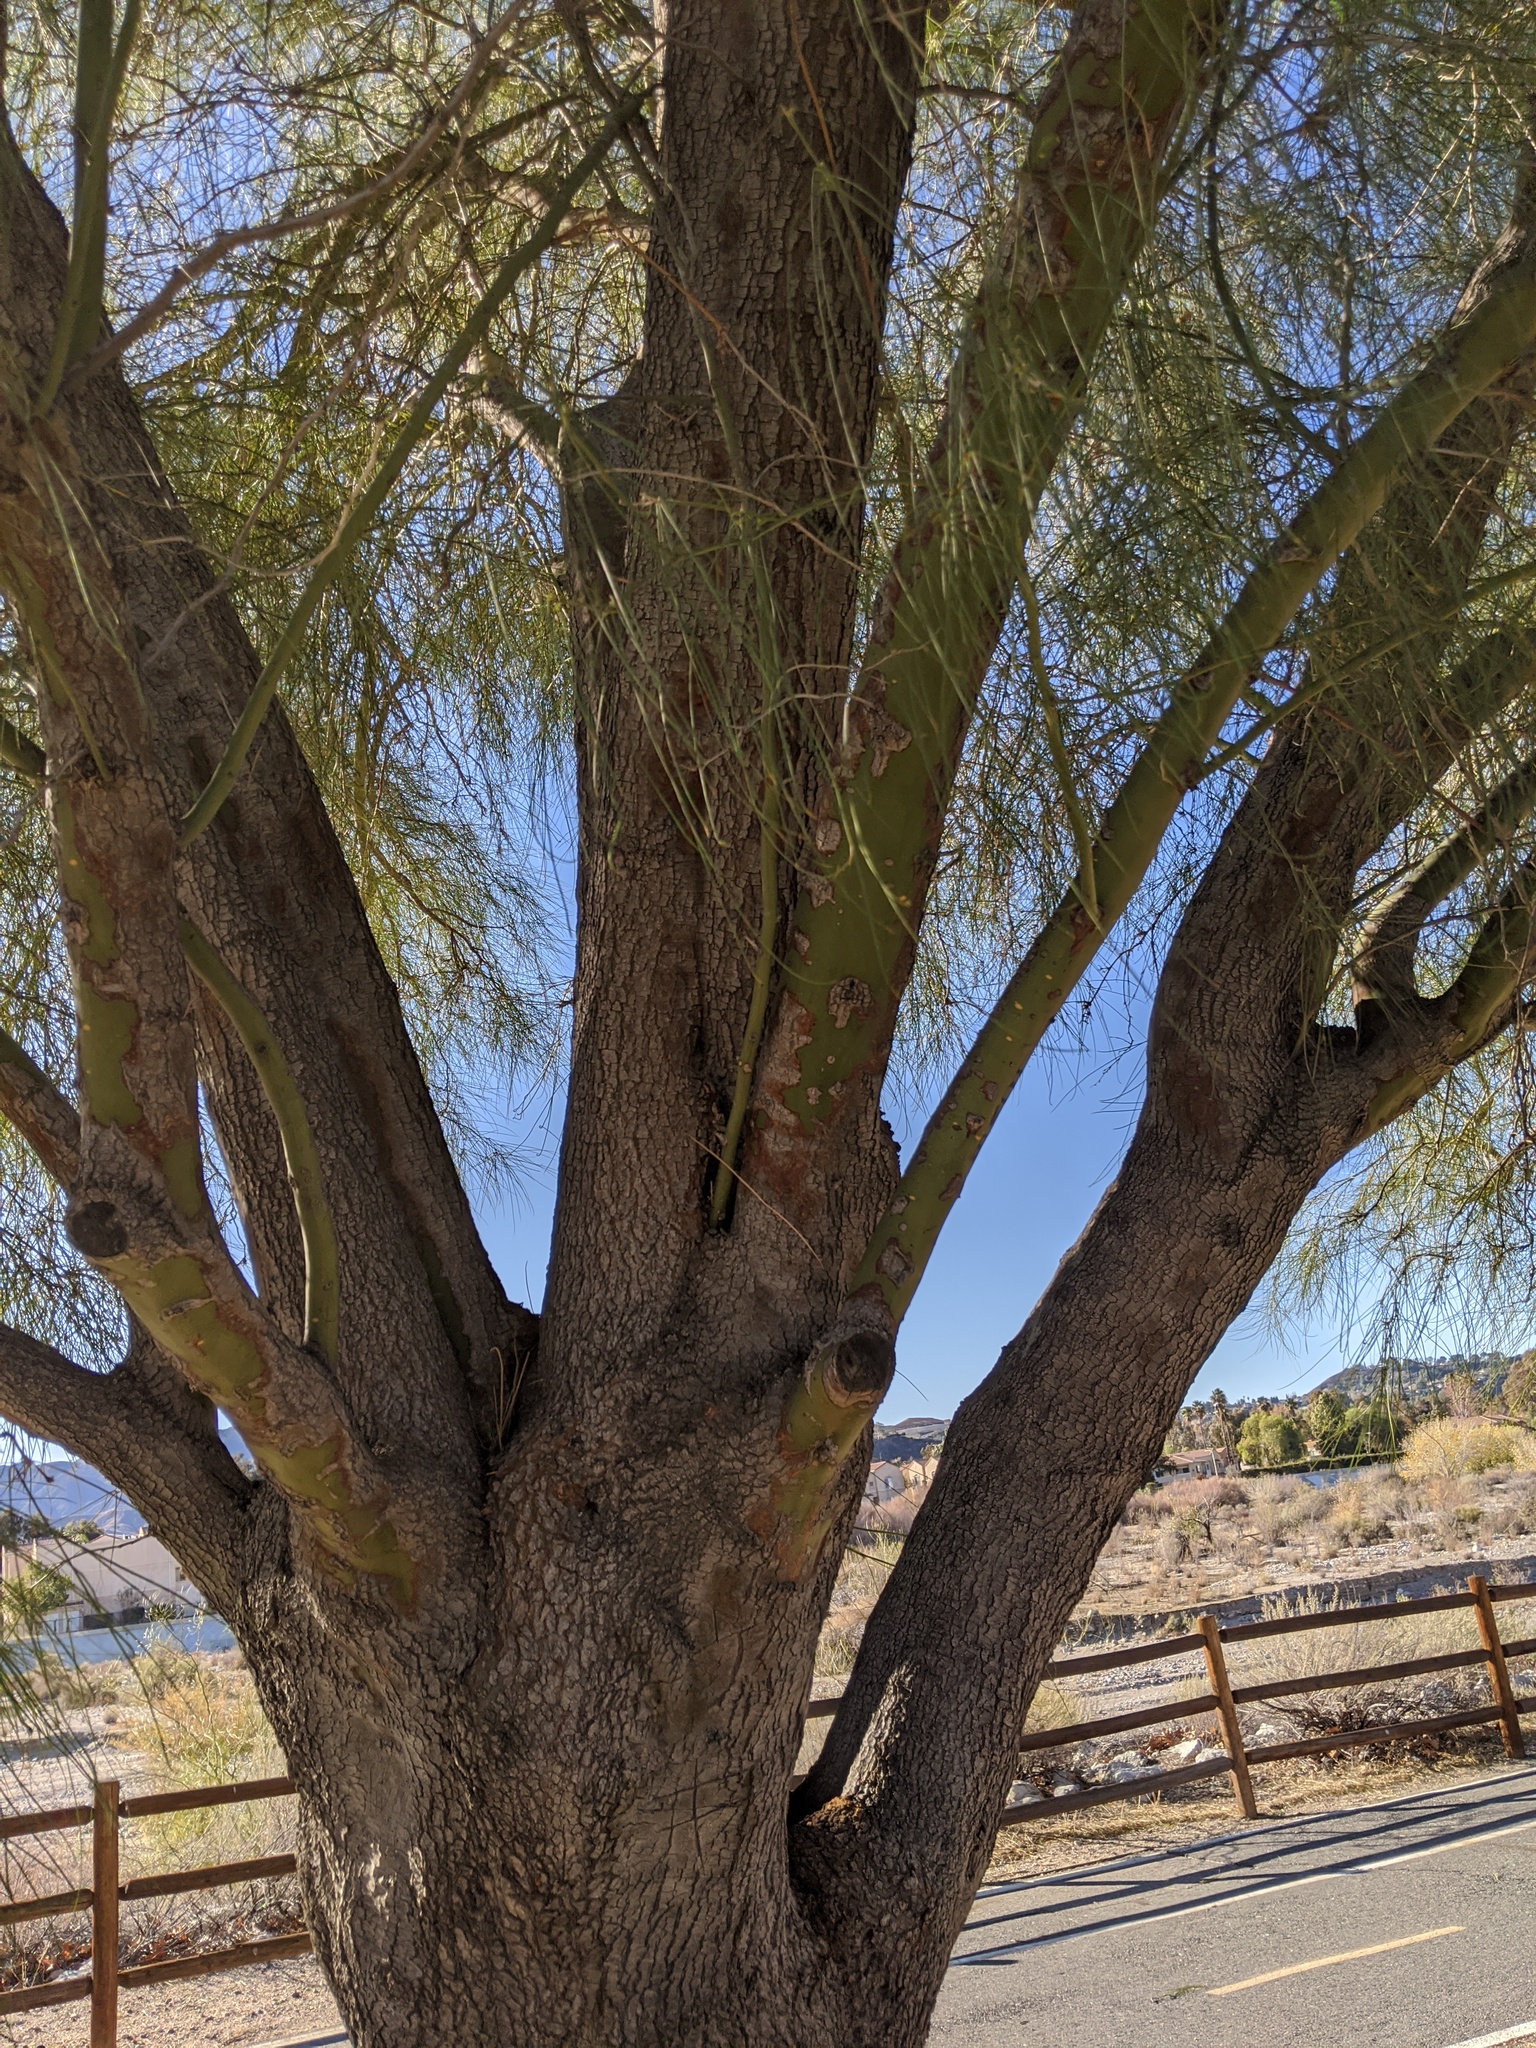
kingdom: Plantae
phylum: Tracheophyta
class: Magnoliopsida
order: Fabales
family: Fabaceae
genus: Parkinsonia
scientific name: Parkinsonia aculeata
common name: Jerusalem thorn
